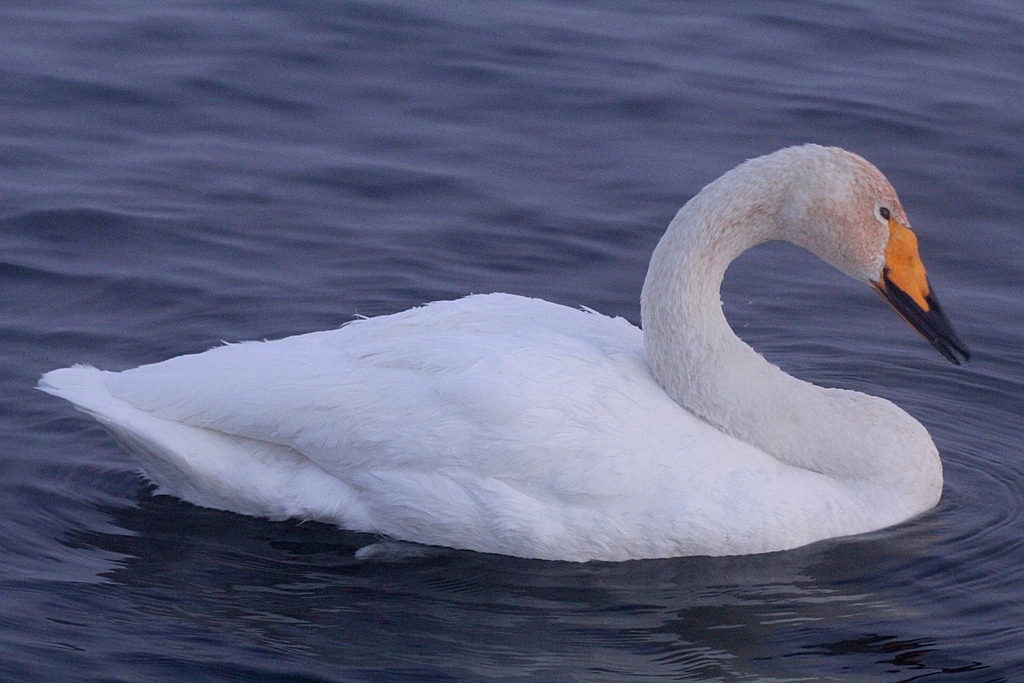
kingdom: Animalia
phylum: Chordata
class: Aves
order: Anseriformes
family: Anatidae
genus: Cygnus
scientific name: Cygnus cygnus
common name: Whooper swan
